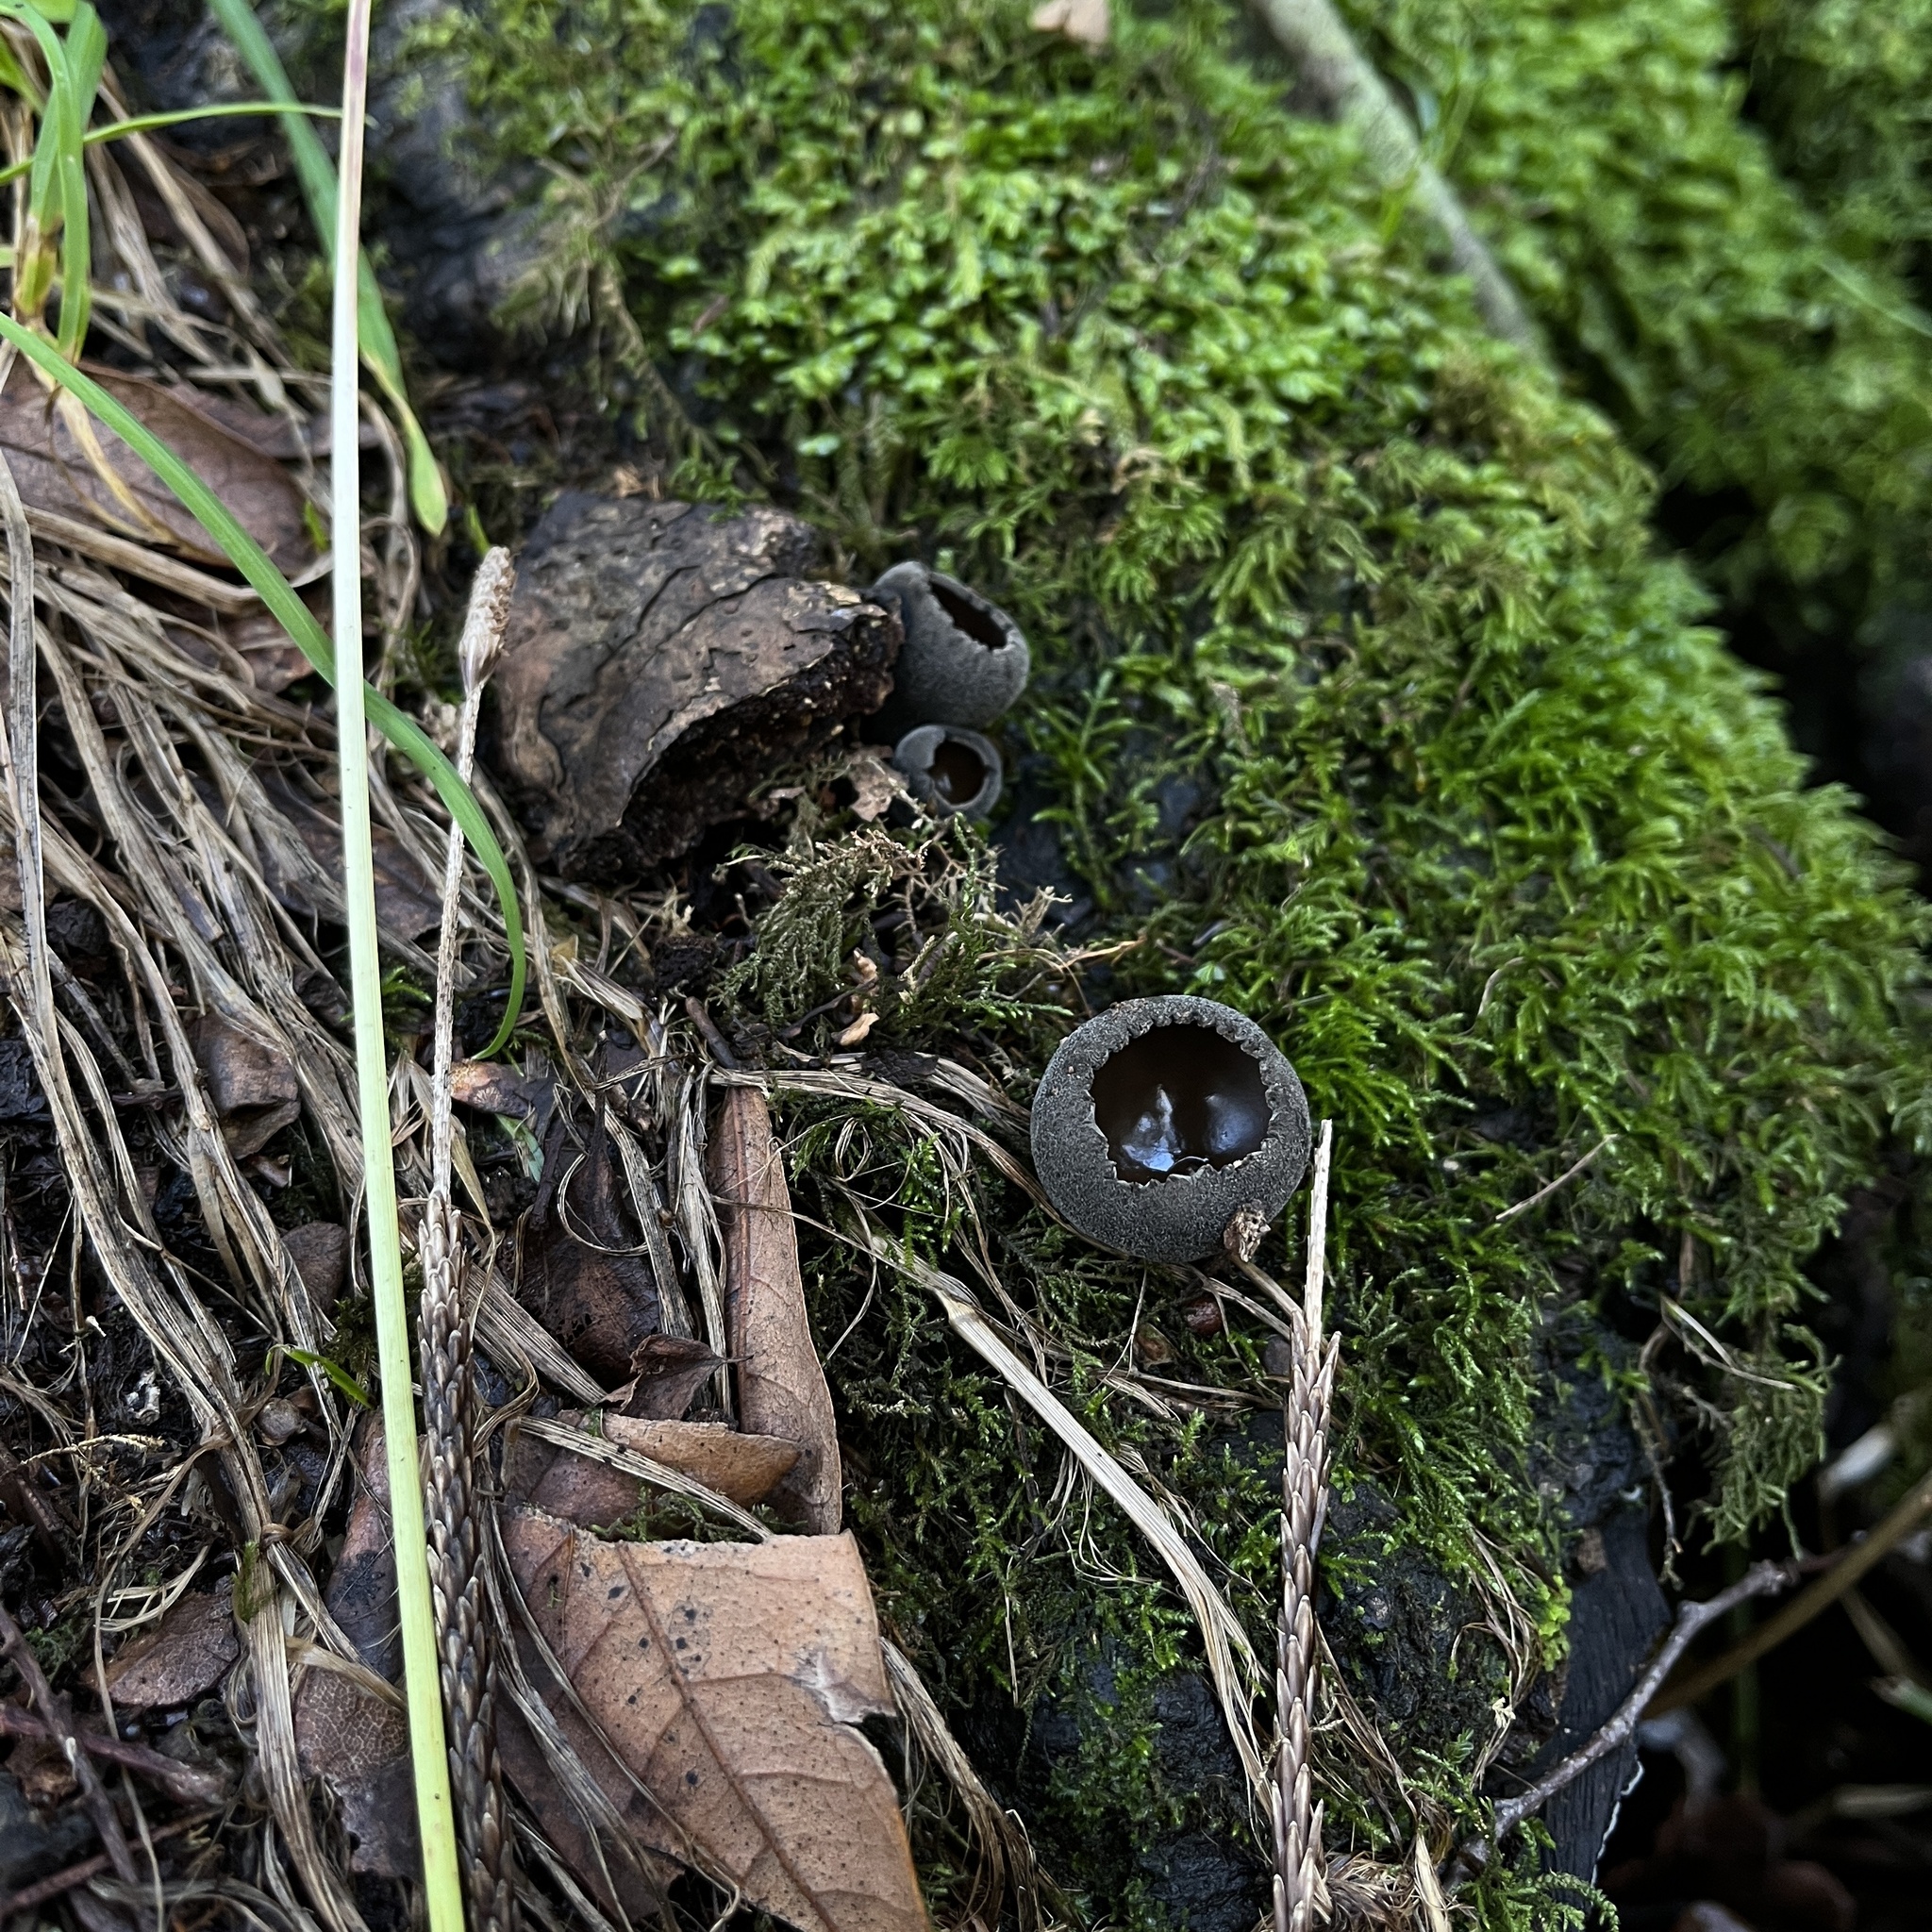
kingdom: Fungi
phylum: Ascomycota
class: Pezizomycetes
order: Pezizales
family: Sarcosomataceae
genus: Plectania
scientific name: Plectania chilensis
